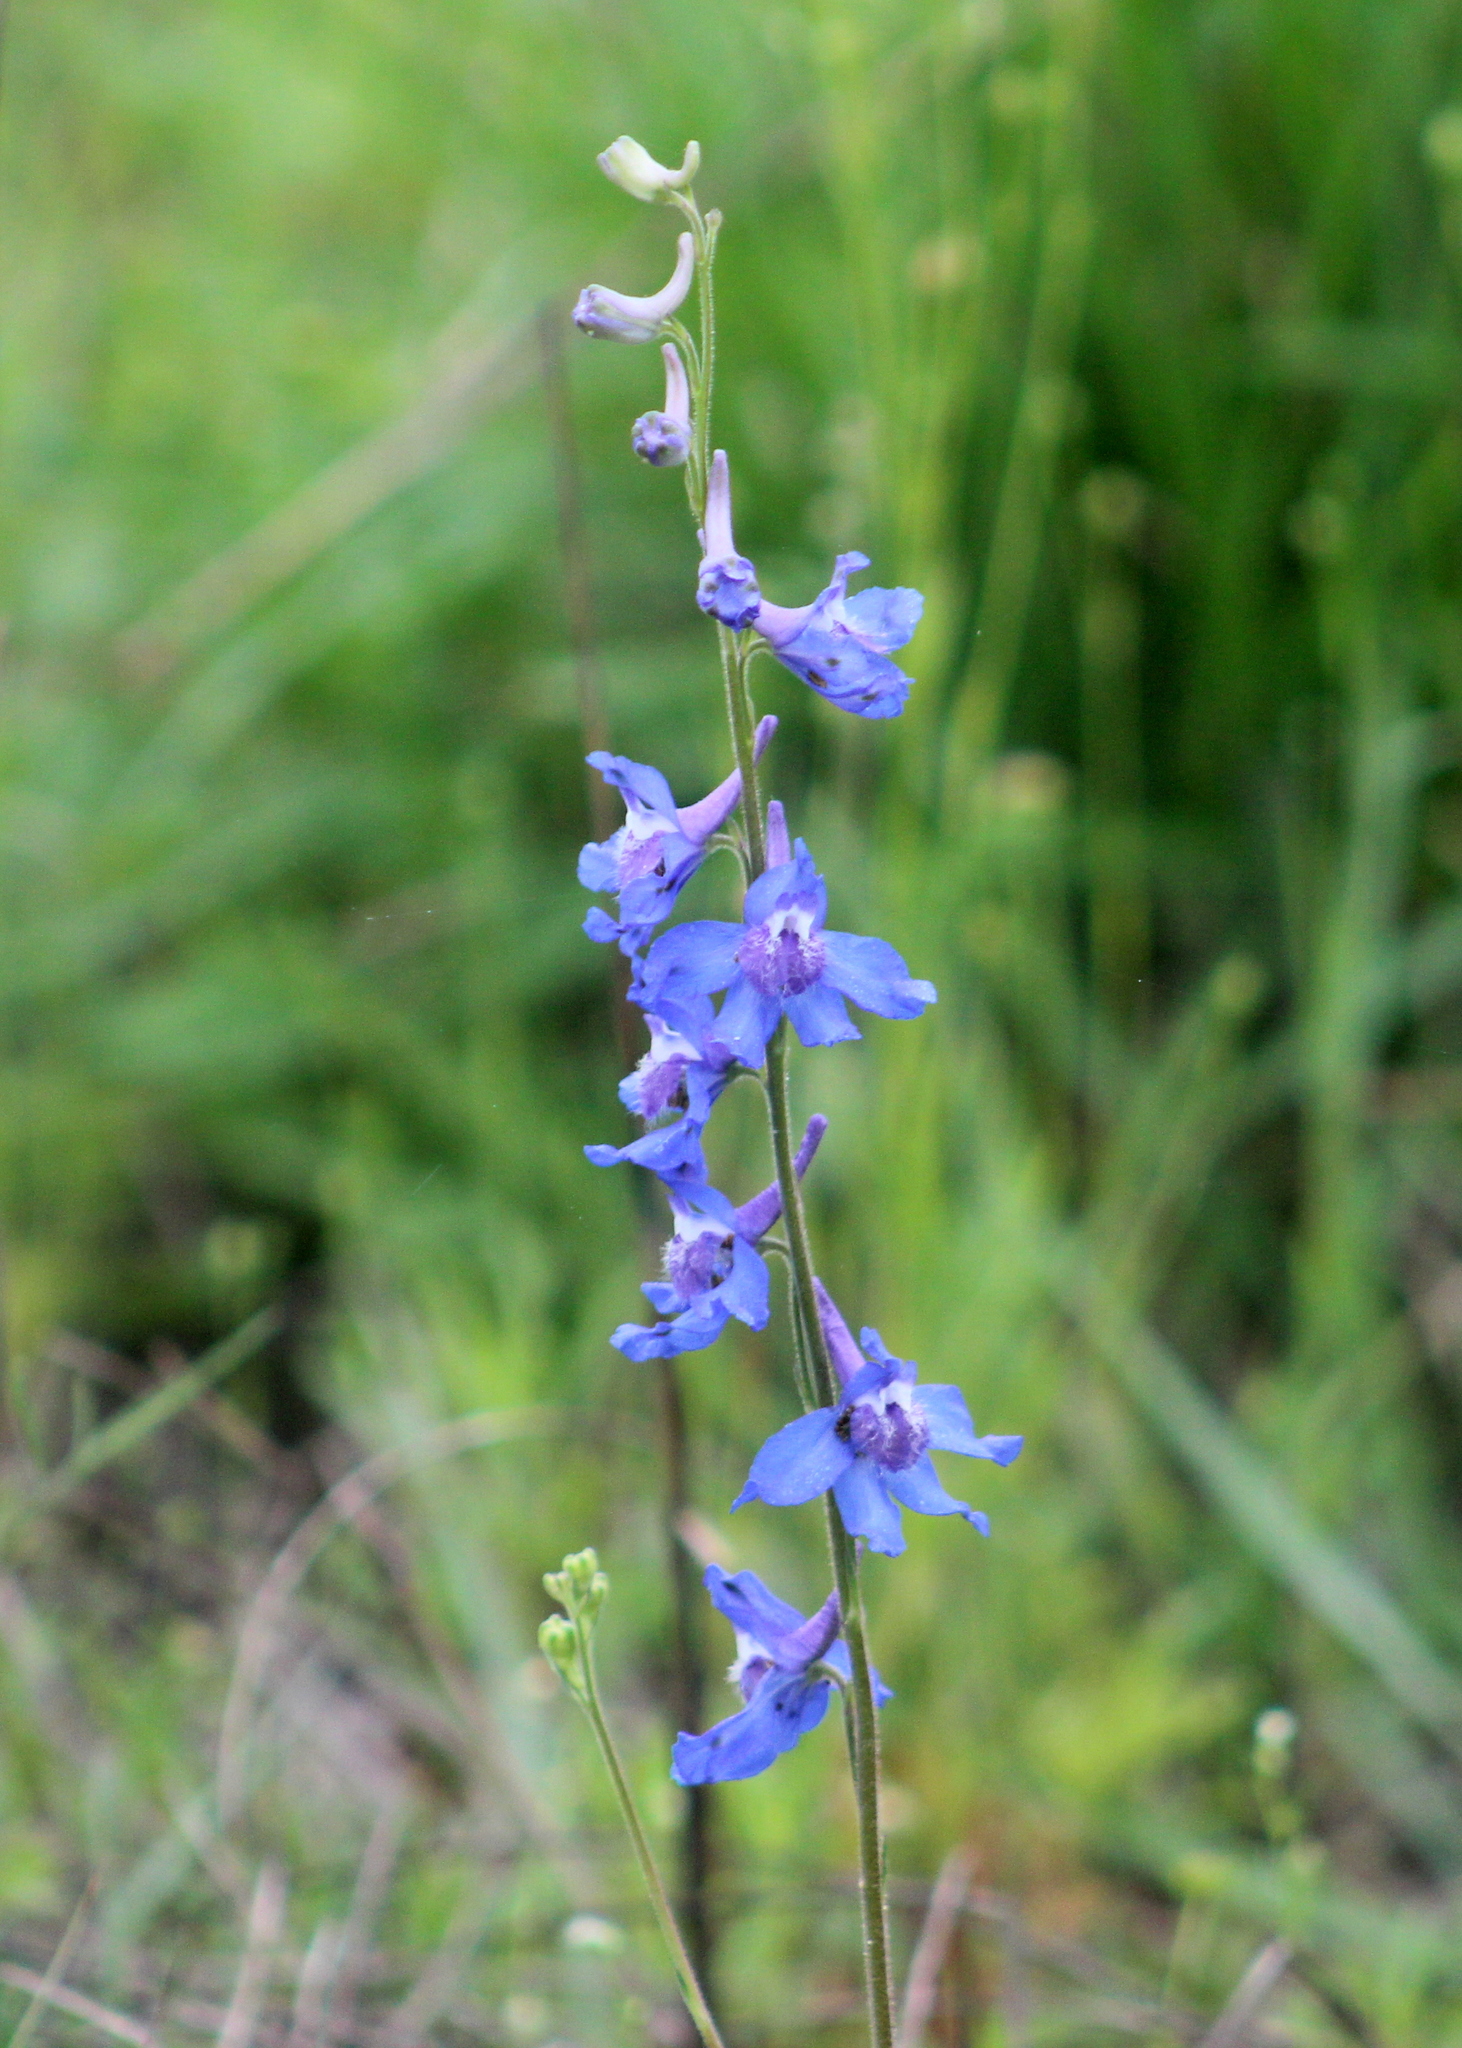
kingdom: Plantae
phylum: Tracheophyta
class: Magnoliopsida
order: Ranunculales
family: Ranunculaceae
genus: Delphinium
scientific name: Delphinium carolinianum
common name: Carolina larkspur
